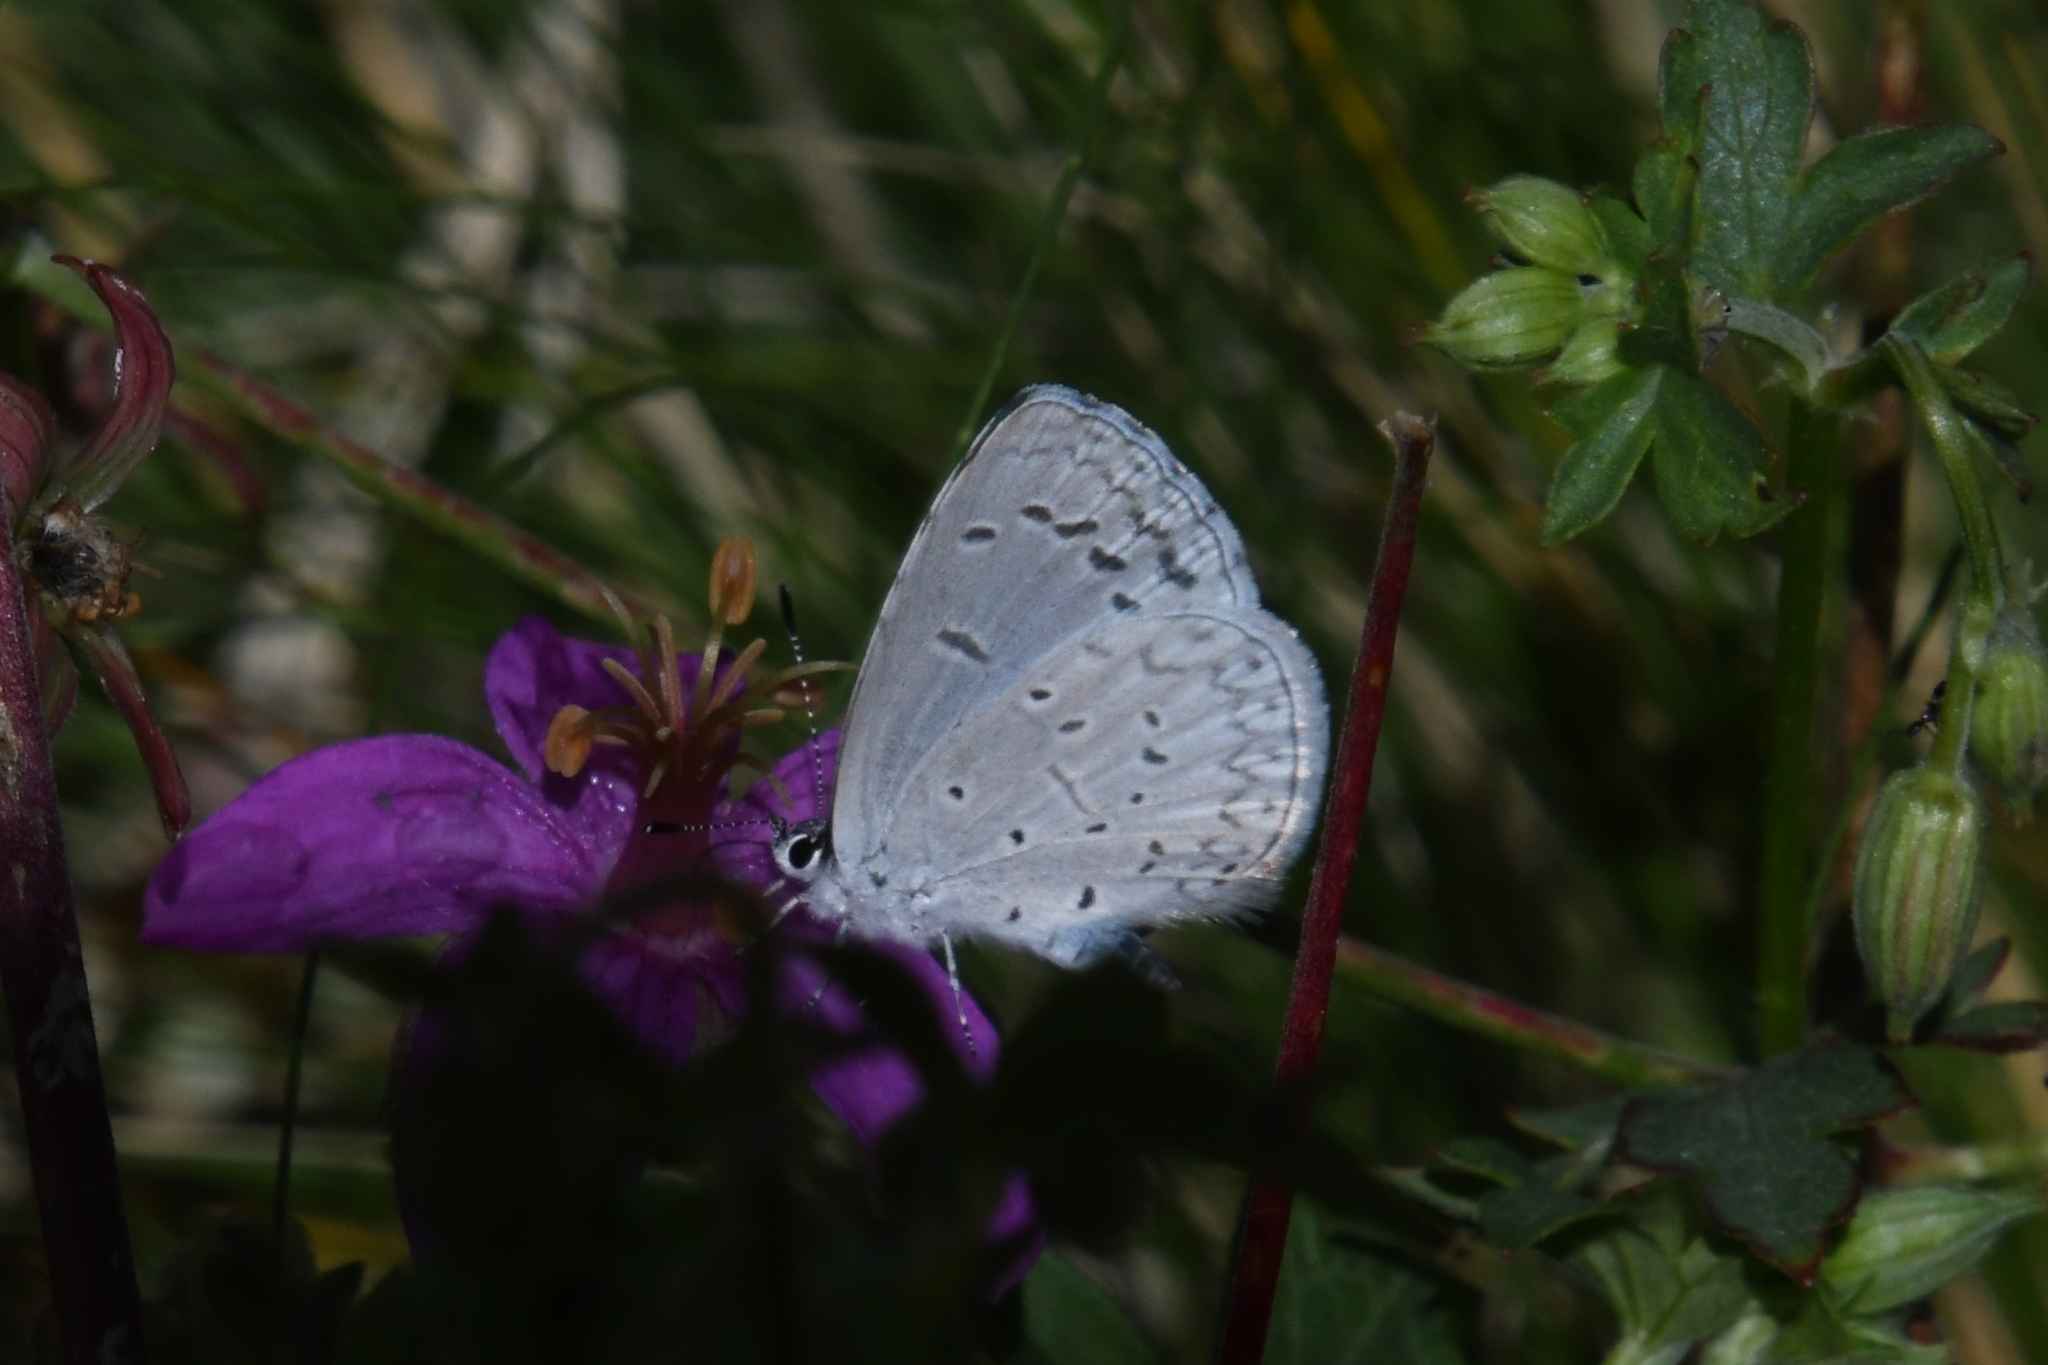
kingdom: Animalia
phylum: Arthropoda
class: Insecta
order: Lepidoptera
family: Lycaenidae
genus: Celastrina
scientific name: Celastrina ladon
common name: Spring azure
